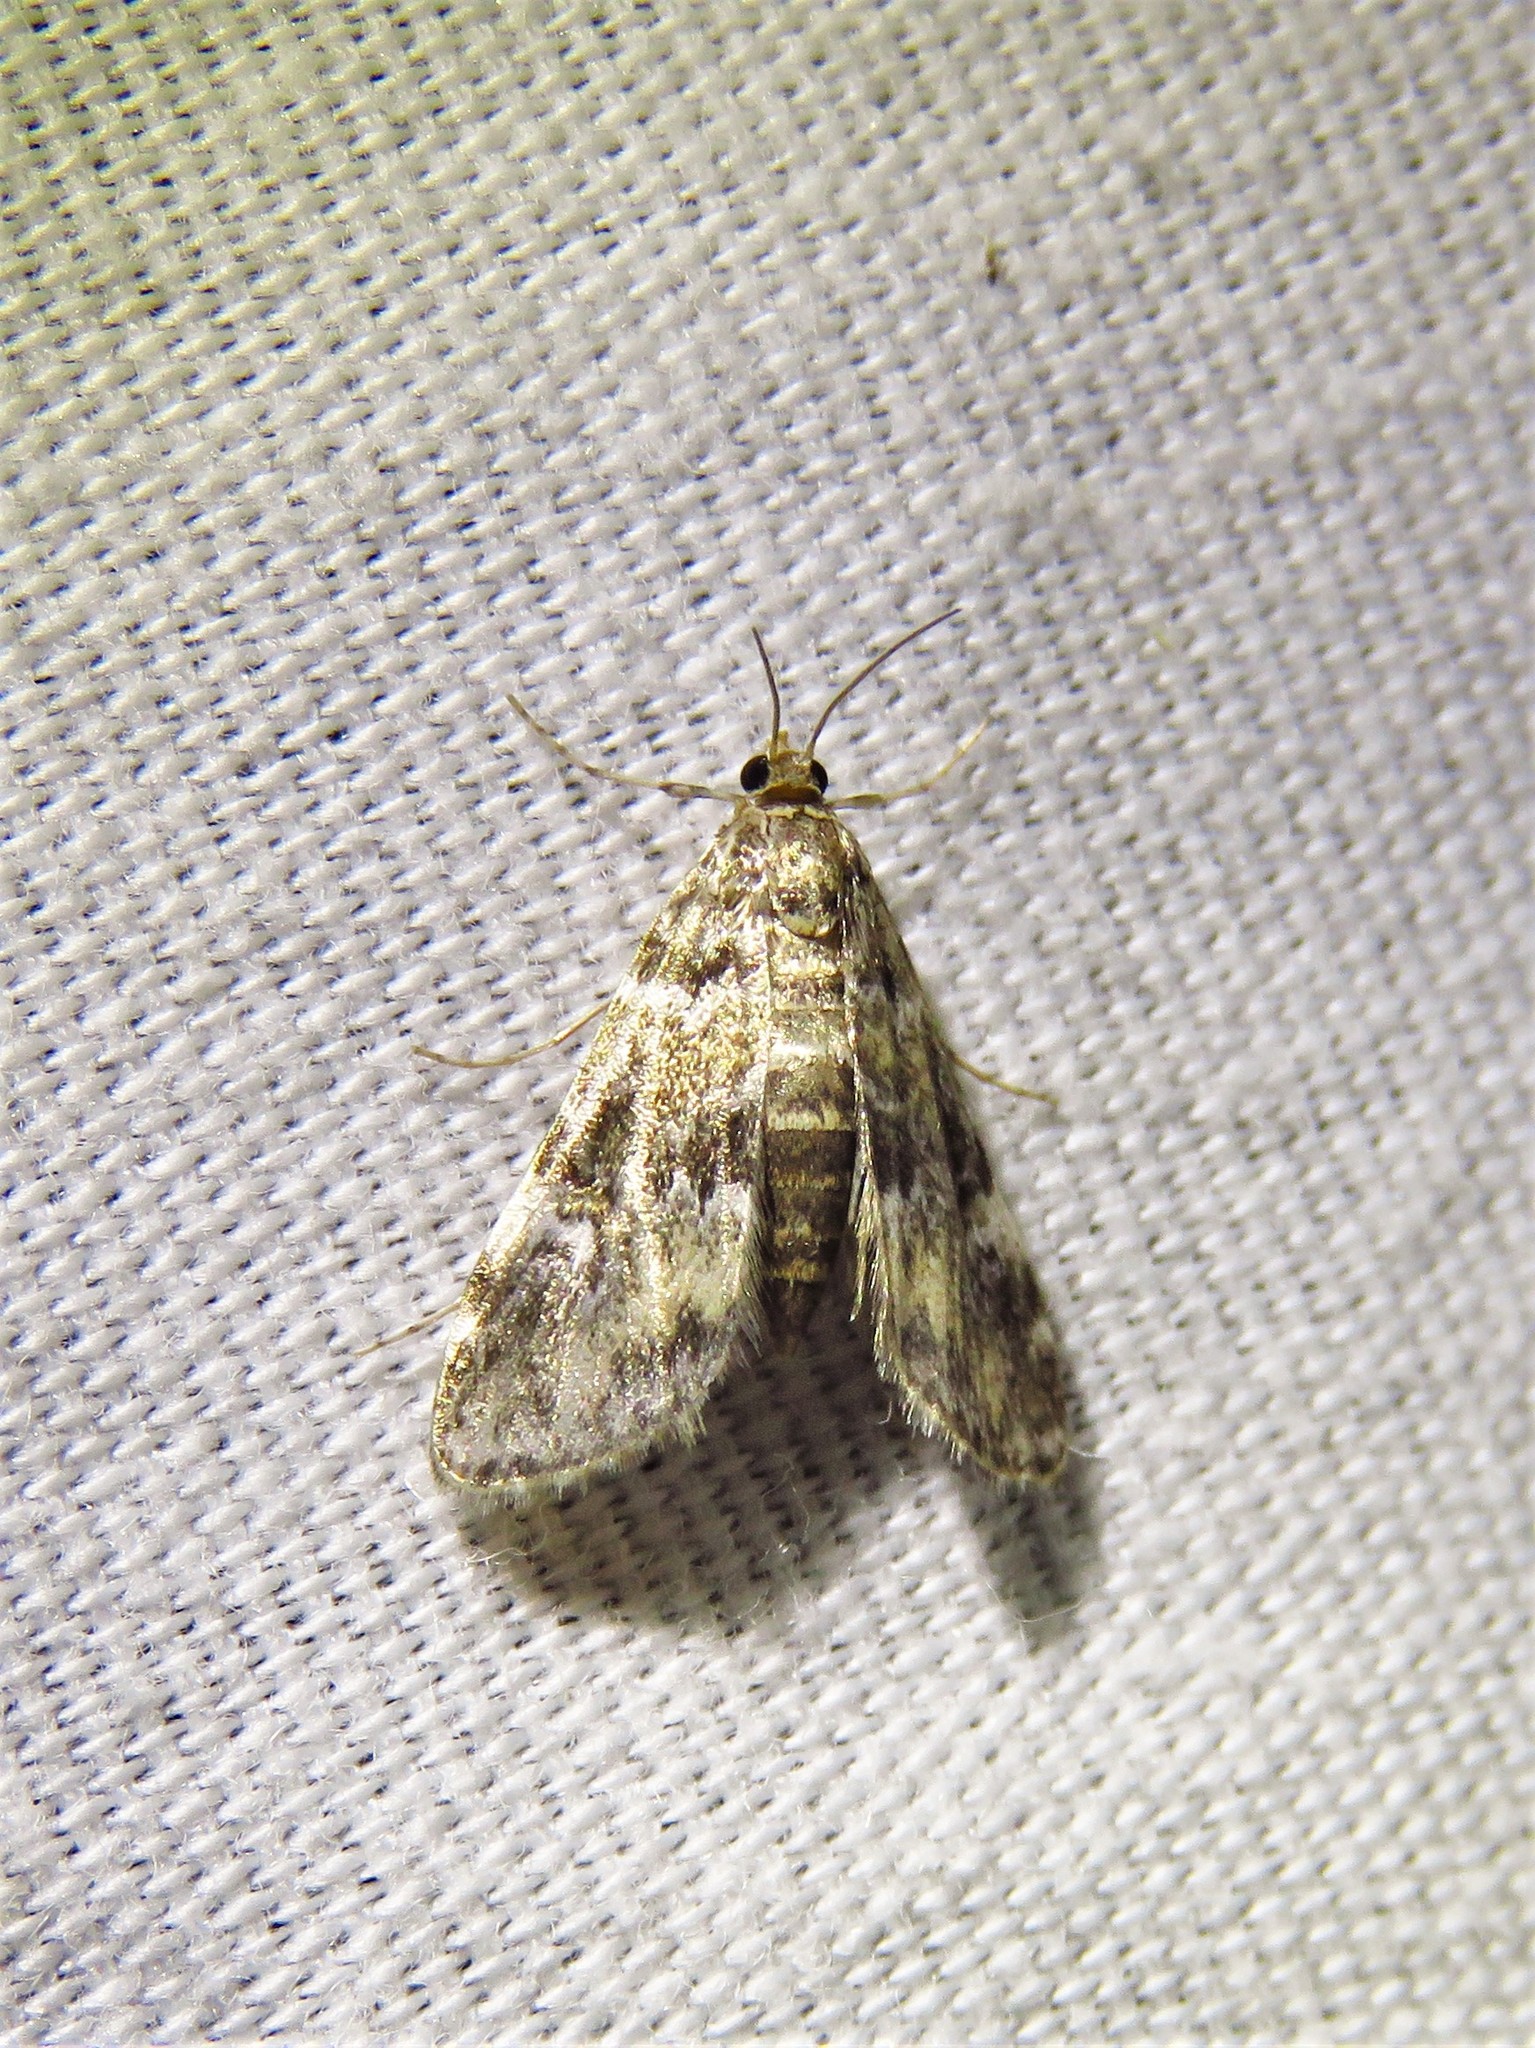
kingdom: Animalia
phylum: Arthropoda
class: Insecta
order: Lepidoptera
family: Crambidae
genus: Elophila
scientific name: Elophila obliteralis
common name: Waterlily leafcutter moth
